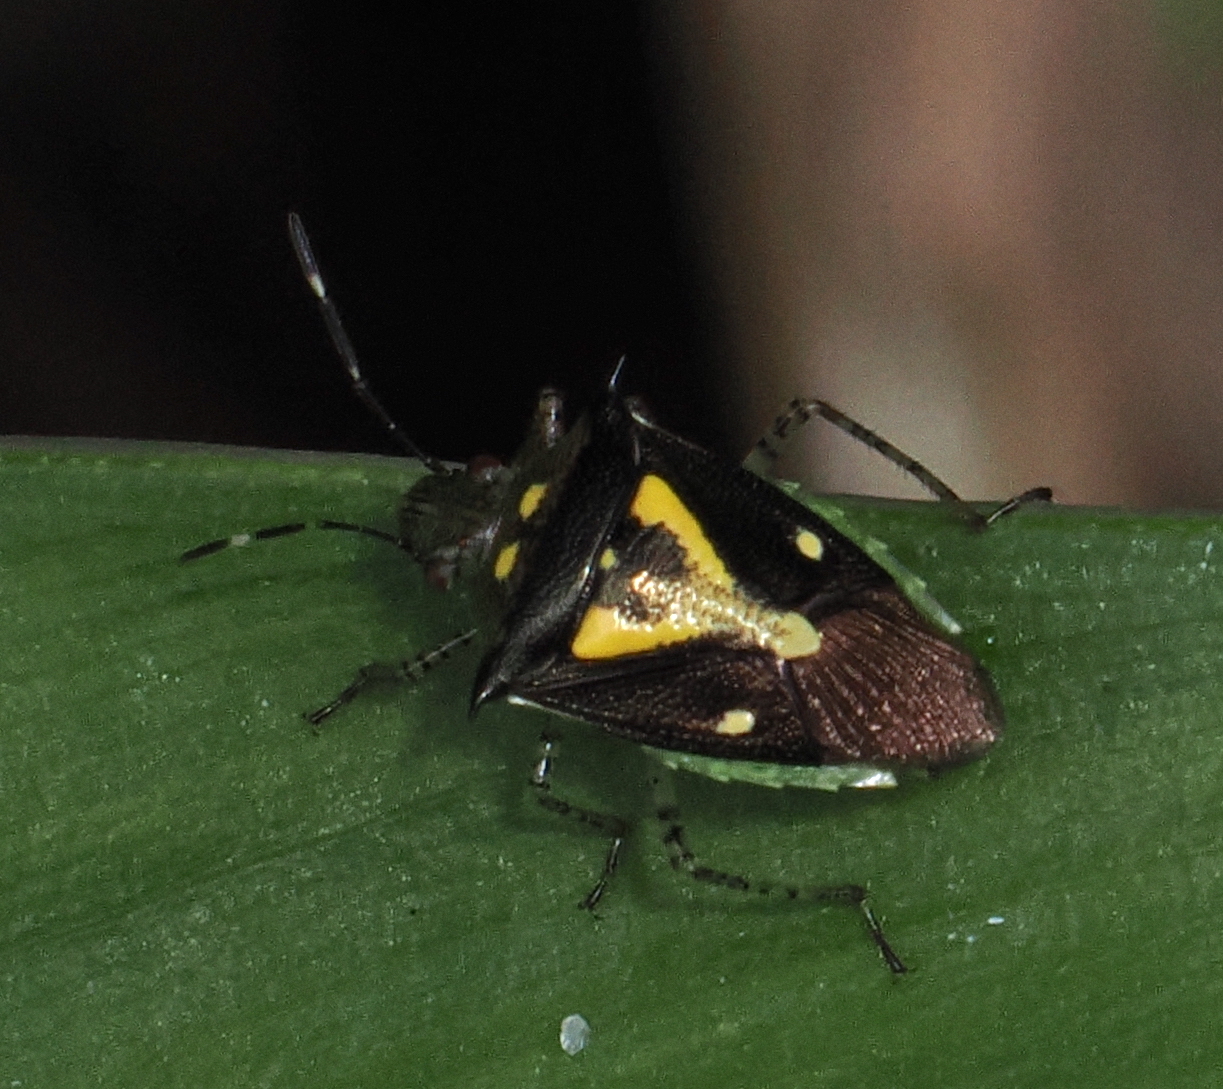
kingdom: Animalia
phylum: Arthropoda
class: Insecta
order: Hemiptera
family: Pentatomidae
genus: Mormidea
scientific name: Mormidea ypsilon
